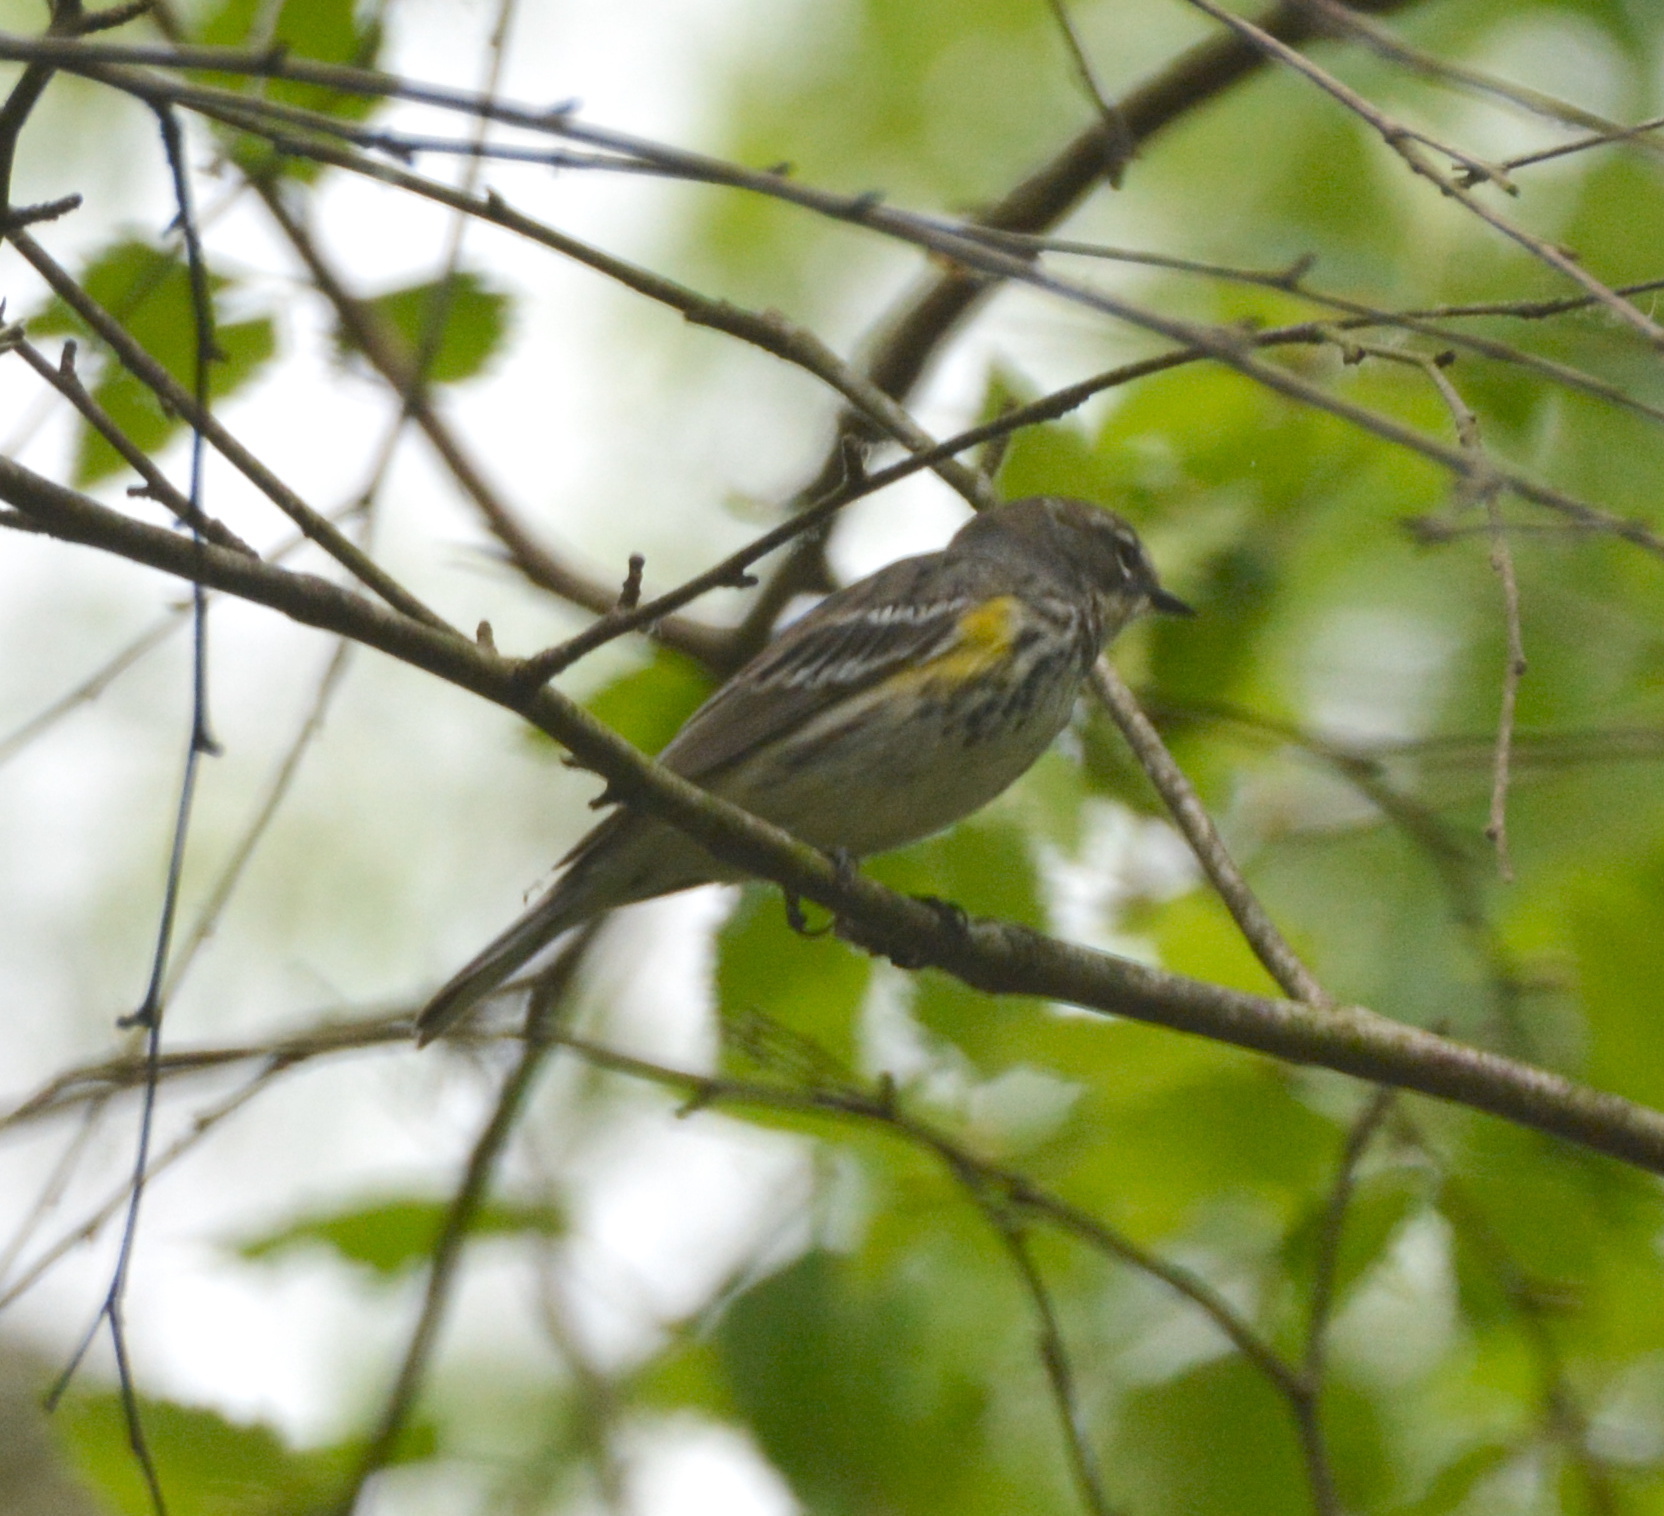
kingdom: Animalia
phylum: Chordata
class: Aves
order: Passeriformes
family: Parulidae
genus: Setophaga
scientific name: Setophaga coronata
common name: Myrtle warbler
